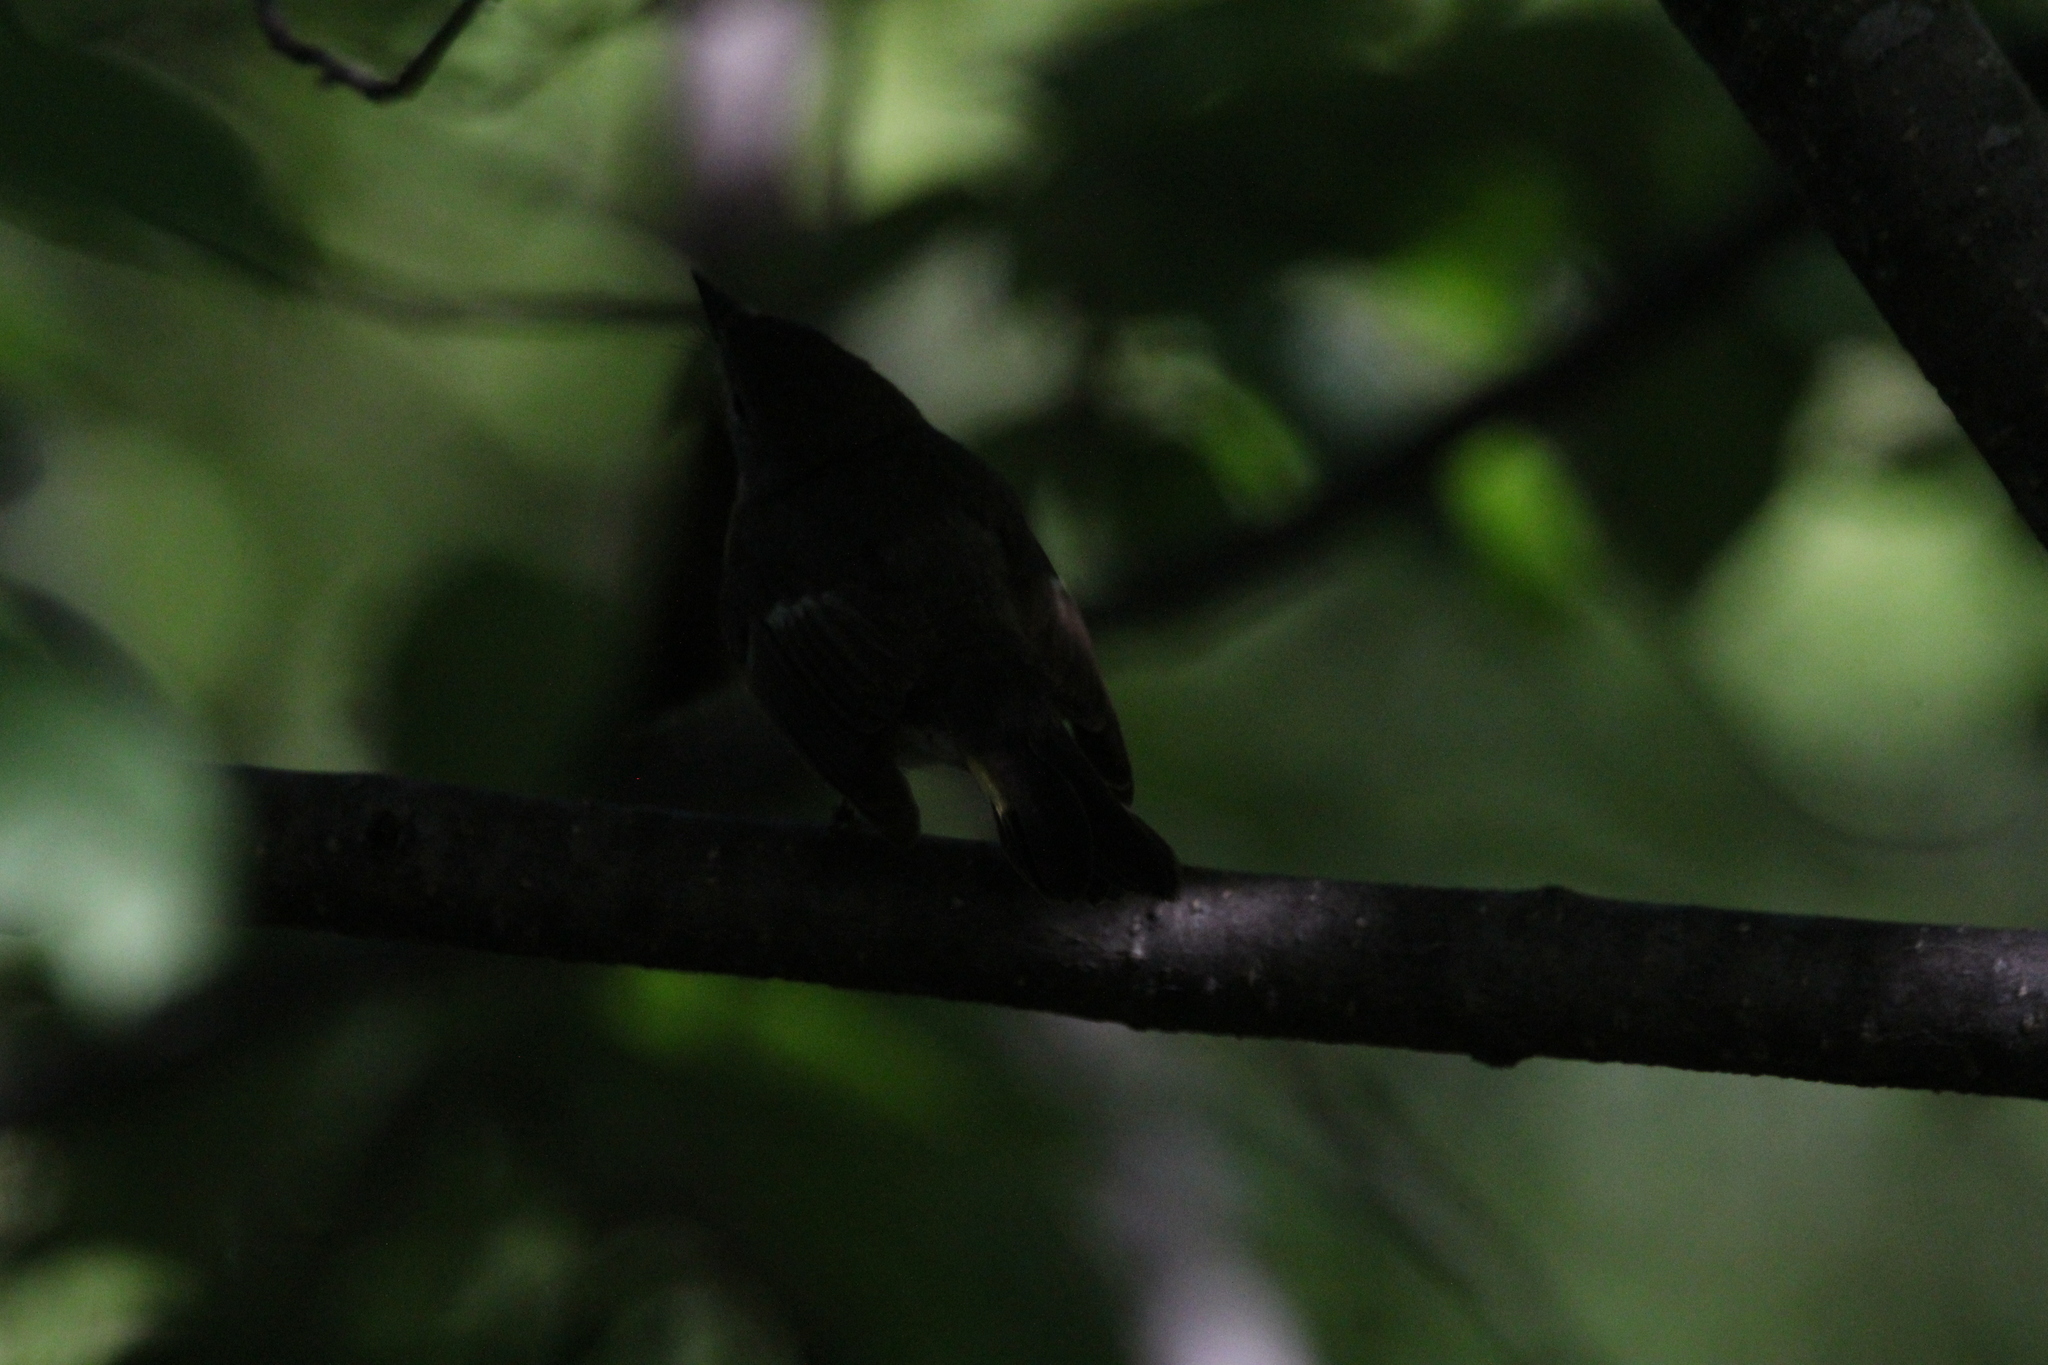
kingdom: Animalia
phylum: Chordata
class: Aves
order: Passeriformes
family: Parulidae
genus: Setophaga
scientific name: Setophaga ruticilla
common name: American redstart
